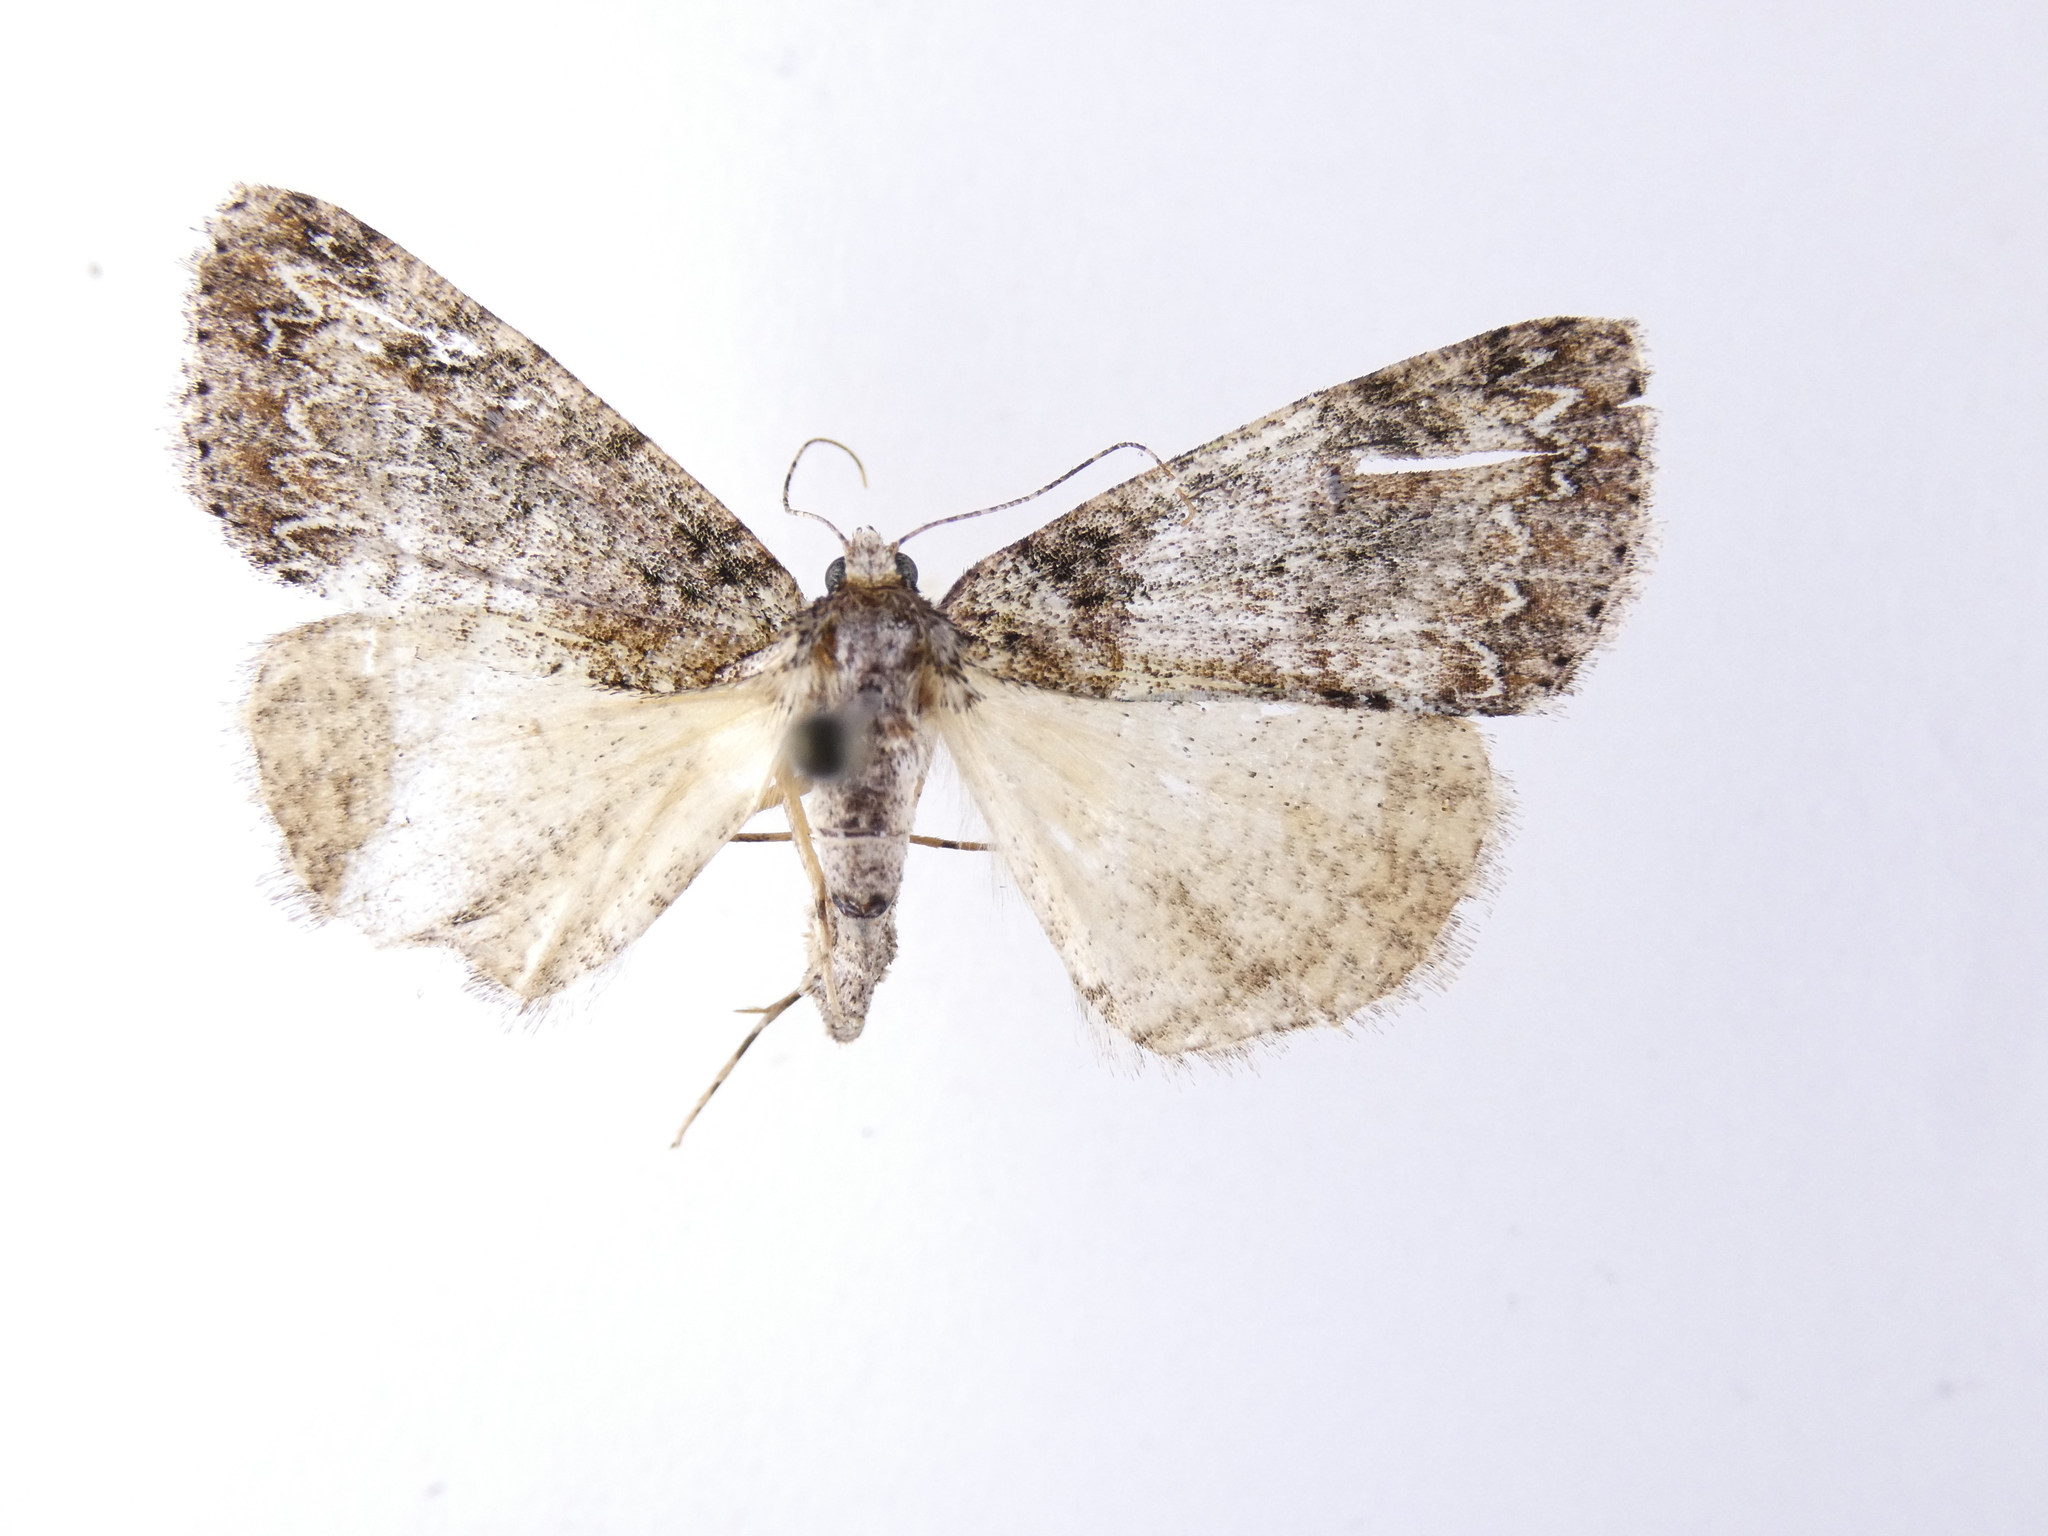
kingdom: Animalia
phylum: Arthropoda
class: Insecta
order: Lepidoptera
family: Geometridae
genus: Pseudocoremia
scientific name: Pseudocoremia suavis
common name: Common forest looper
